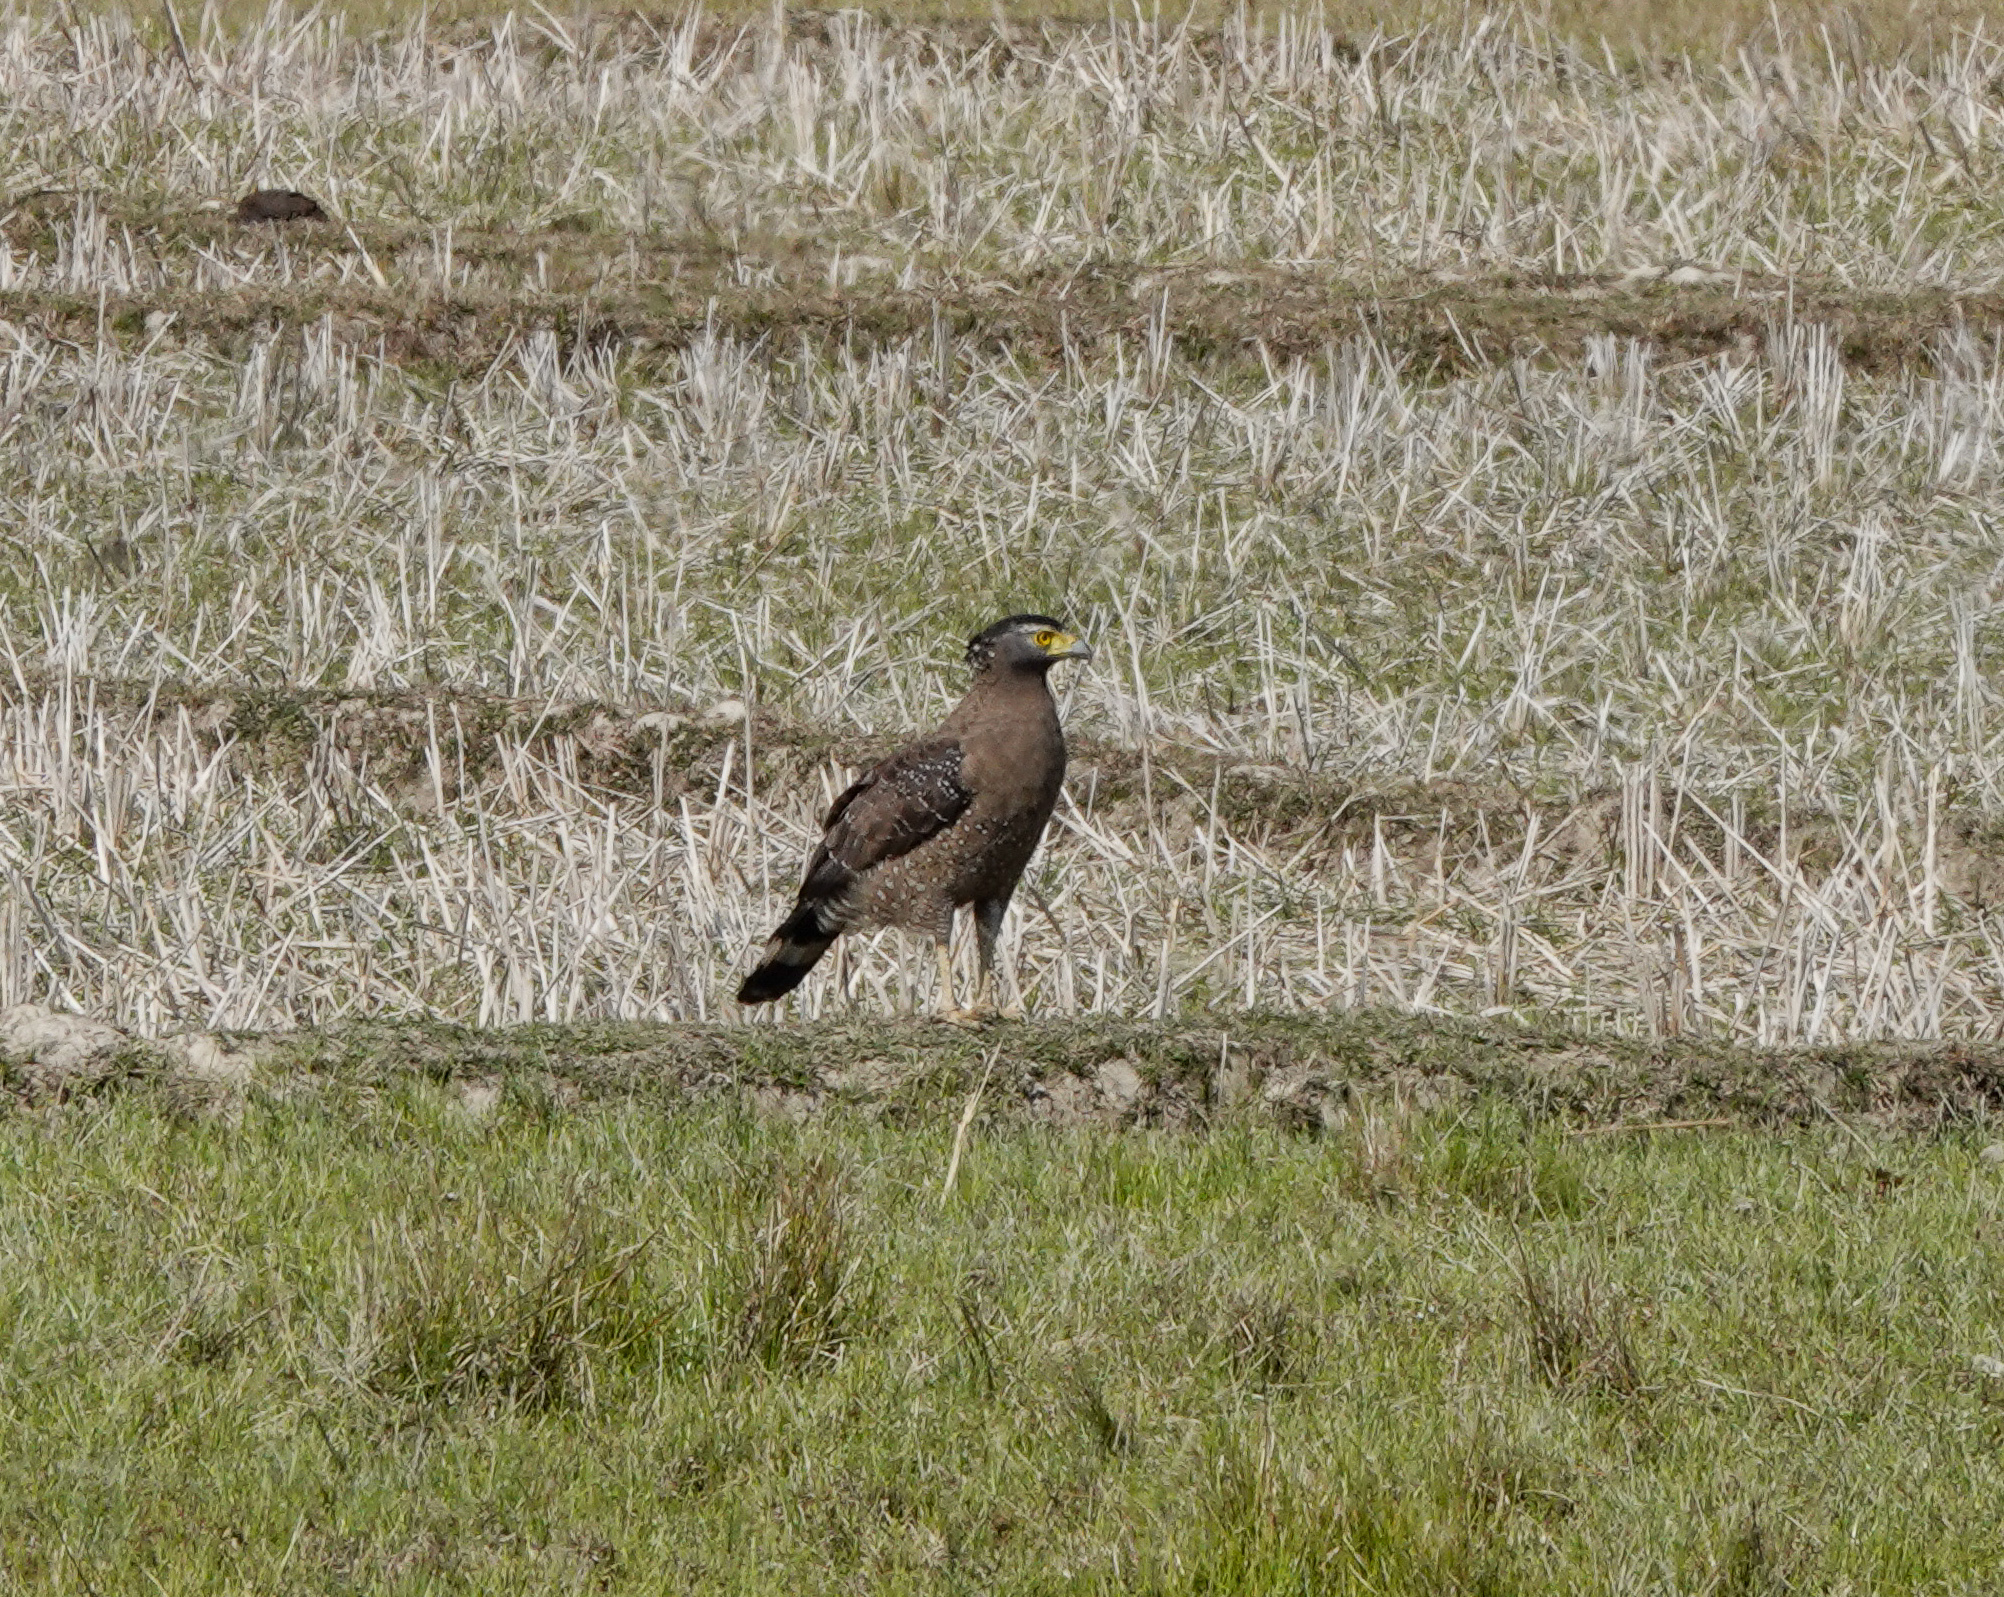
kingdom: Animalia
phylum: Chordata
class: Aves
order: Accipitriformes
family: Accipitridae
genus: Spilornis
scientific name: Spilornis cheela
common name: Crested serpent eagle
